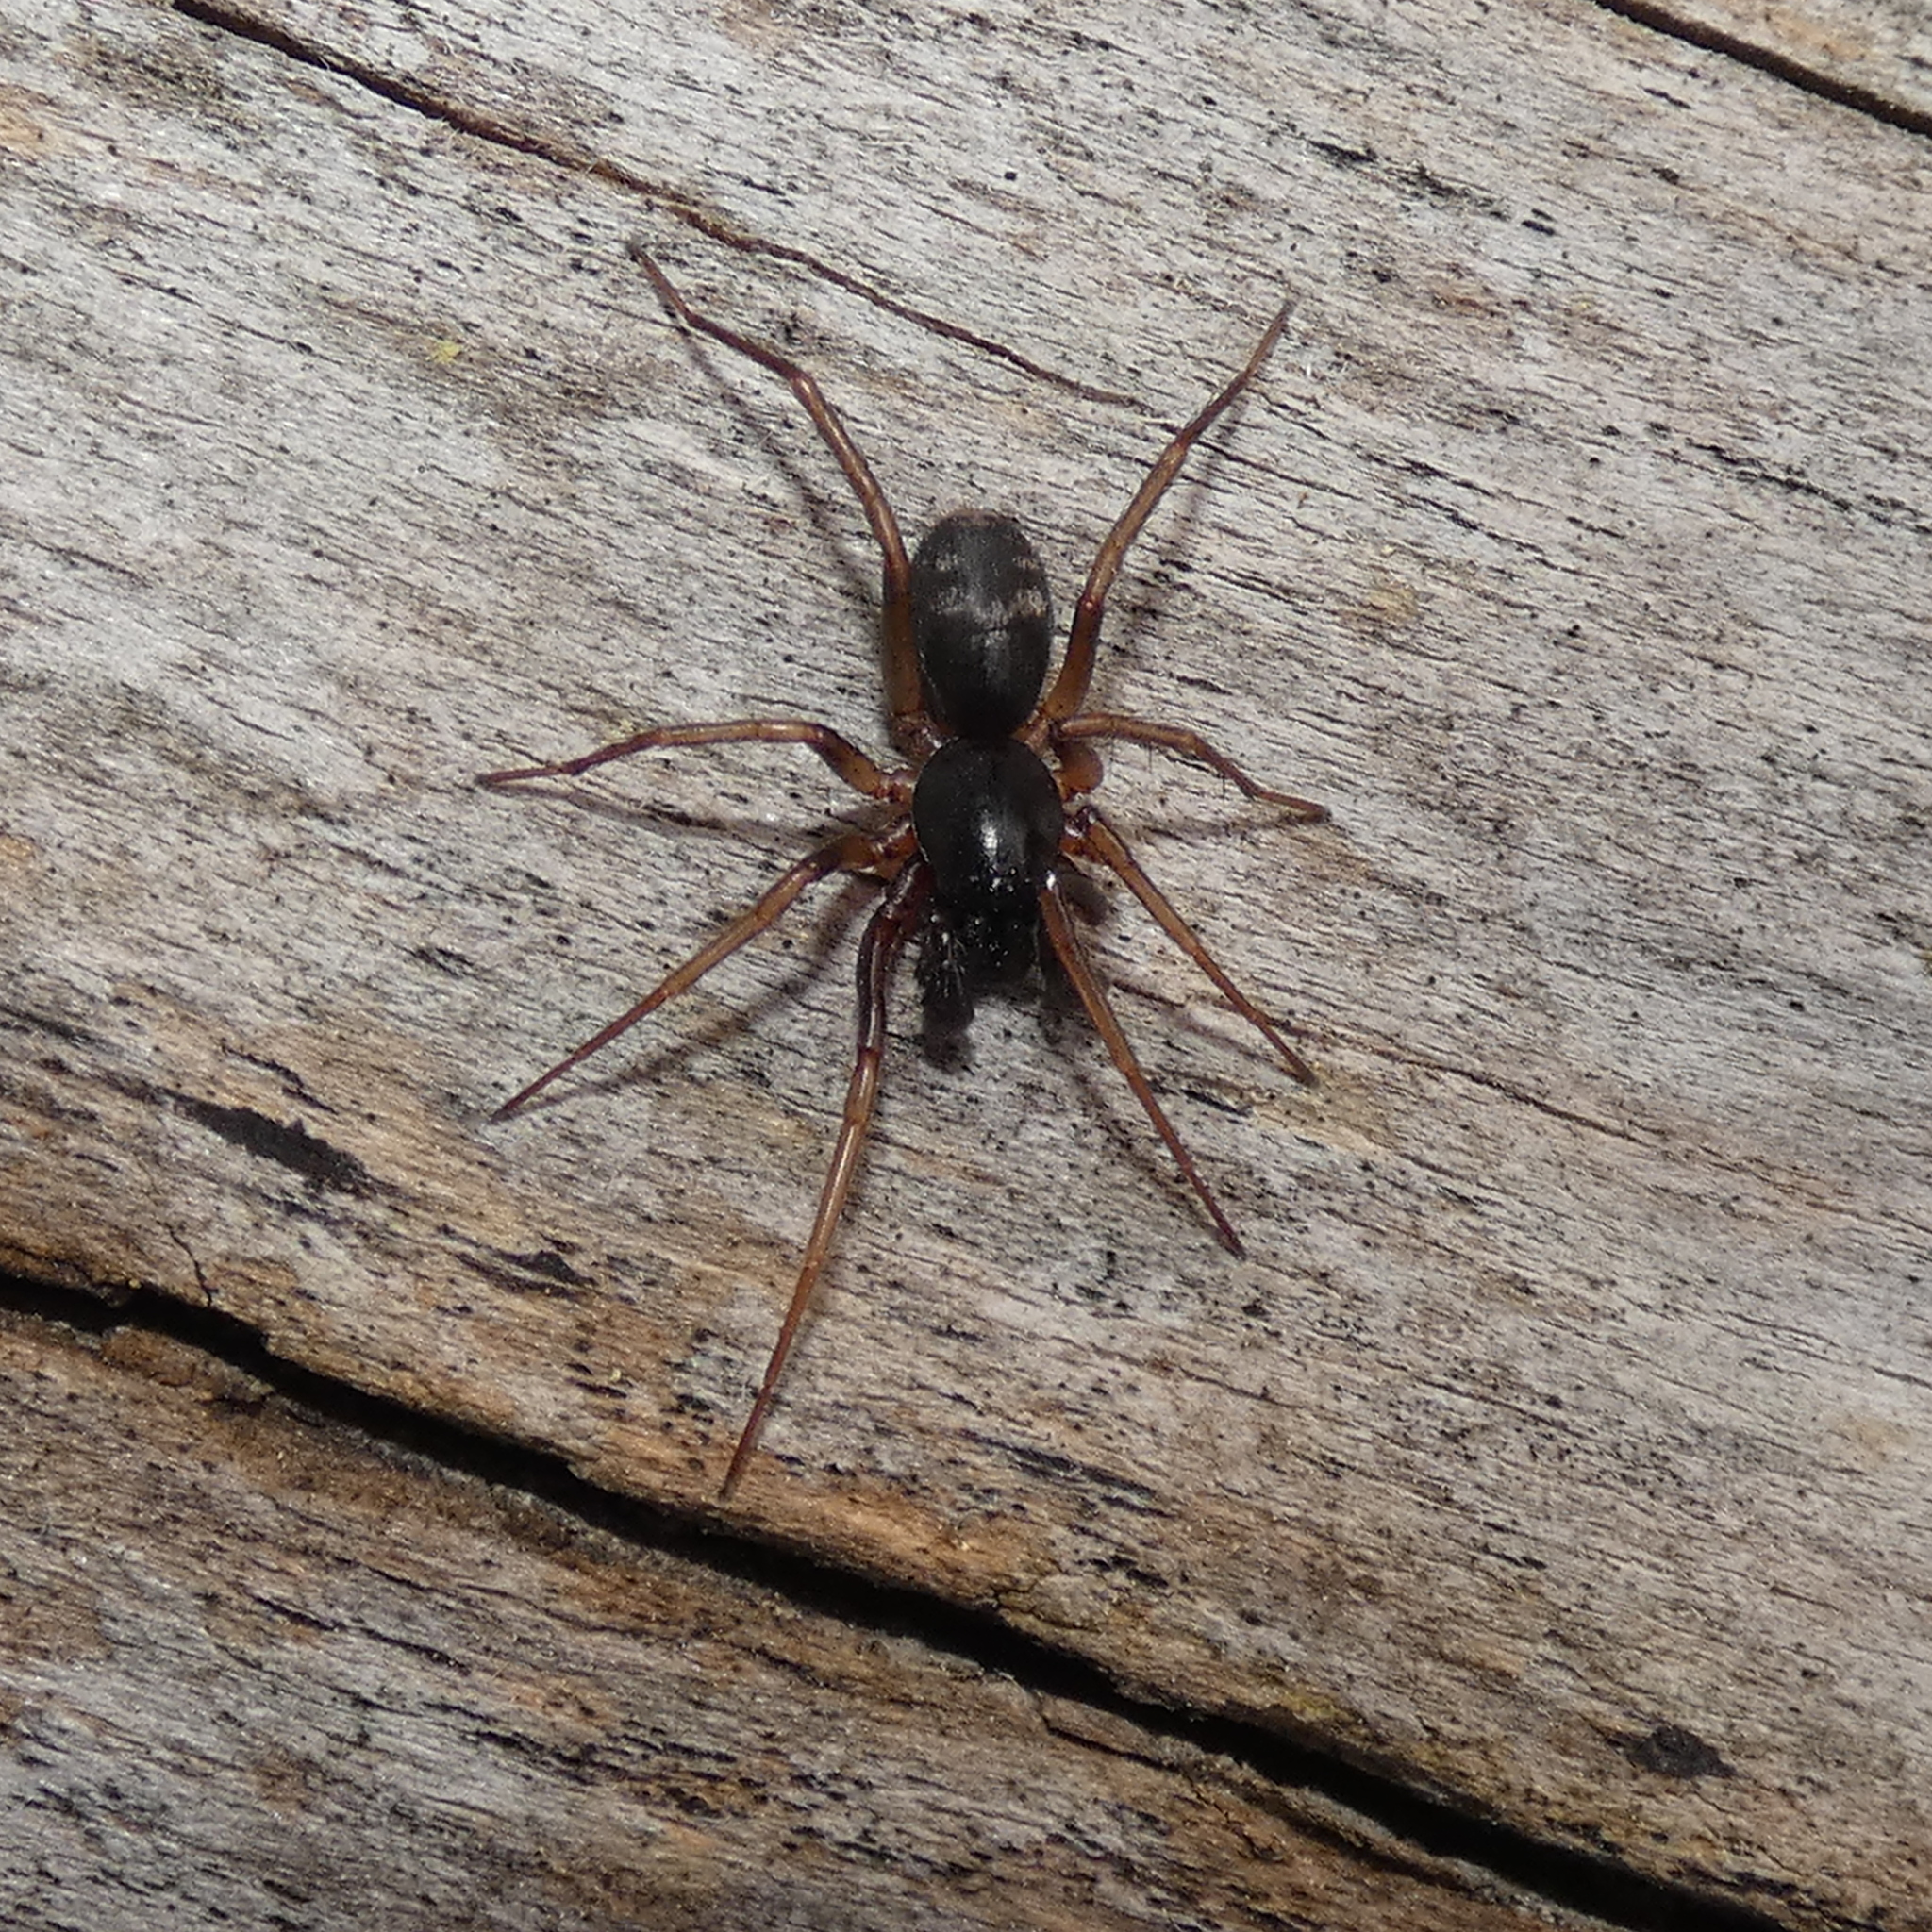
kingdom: Animalia
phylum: Arthropoda
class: Arachnida
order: Araneae
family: Corinnidae
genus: Falconina
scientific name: Falconina gracilis
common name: Antmimic spider
